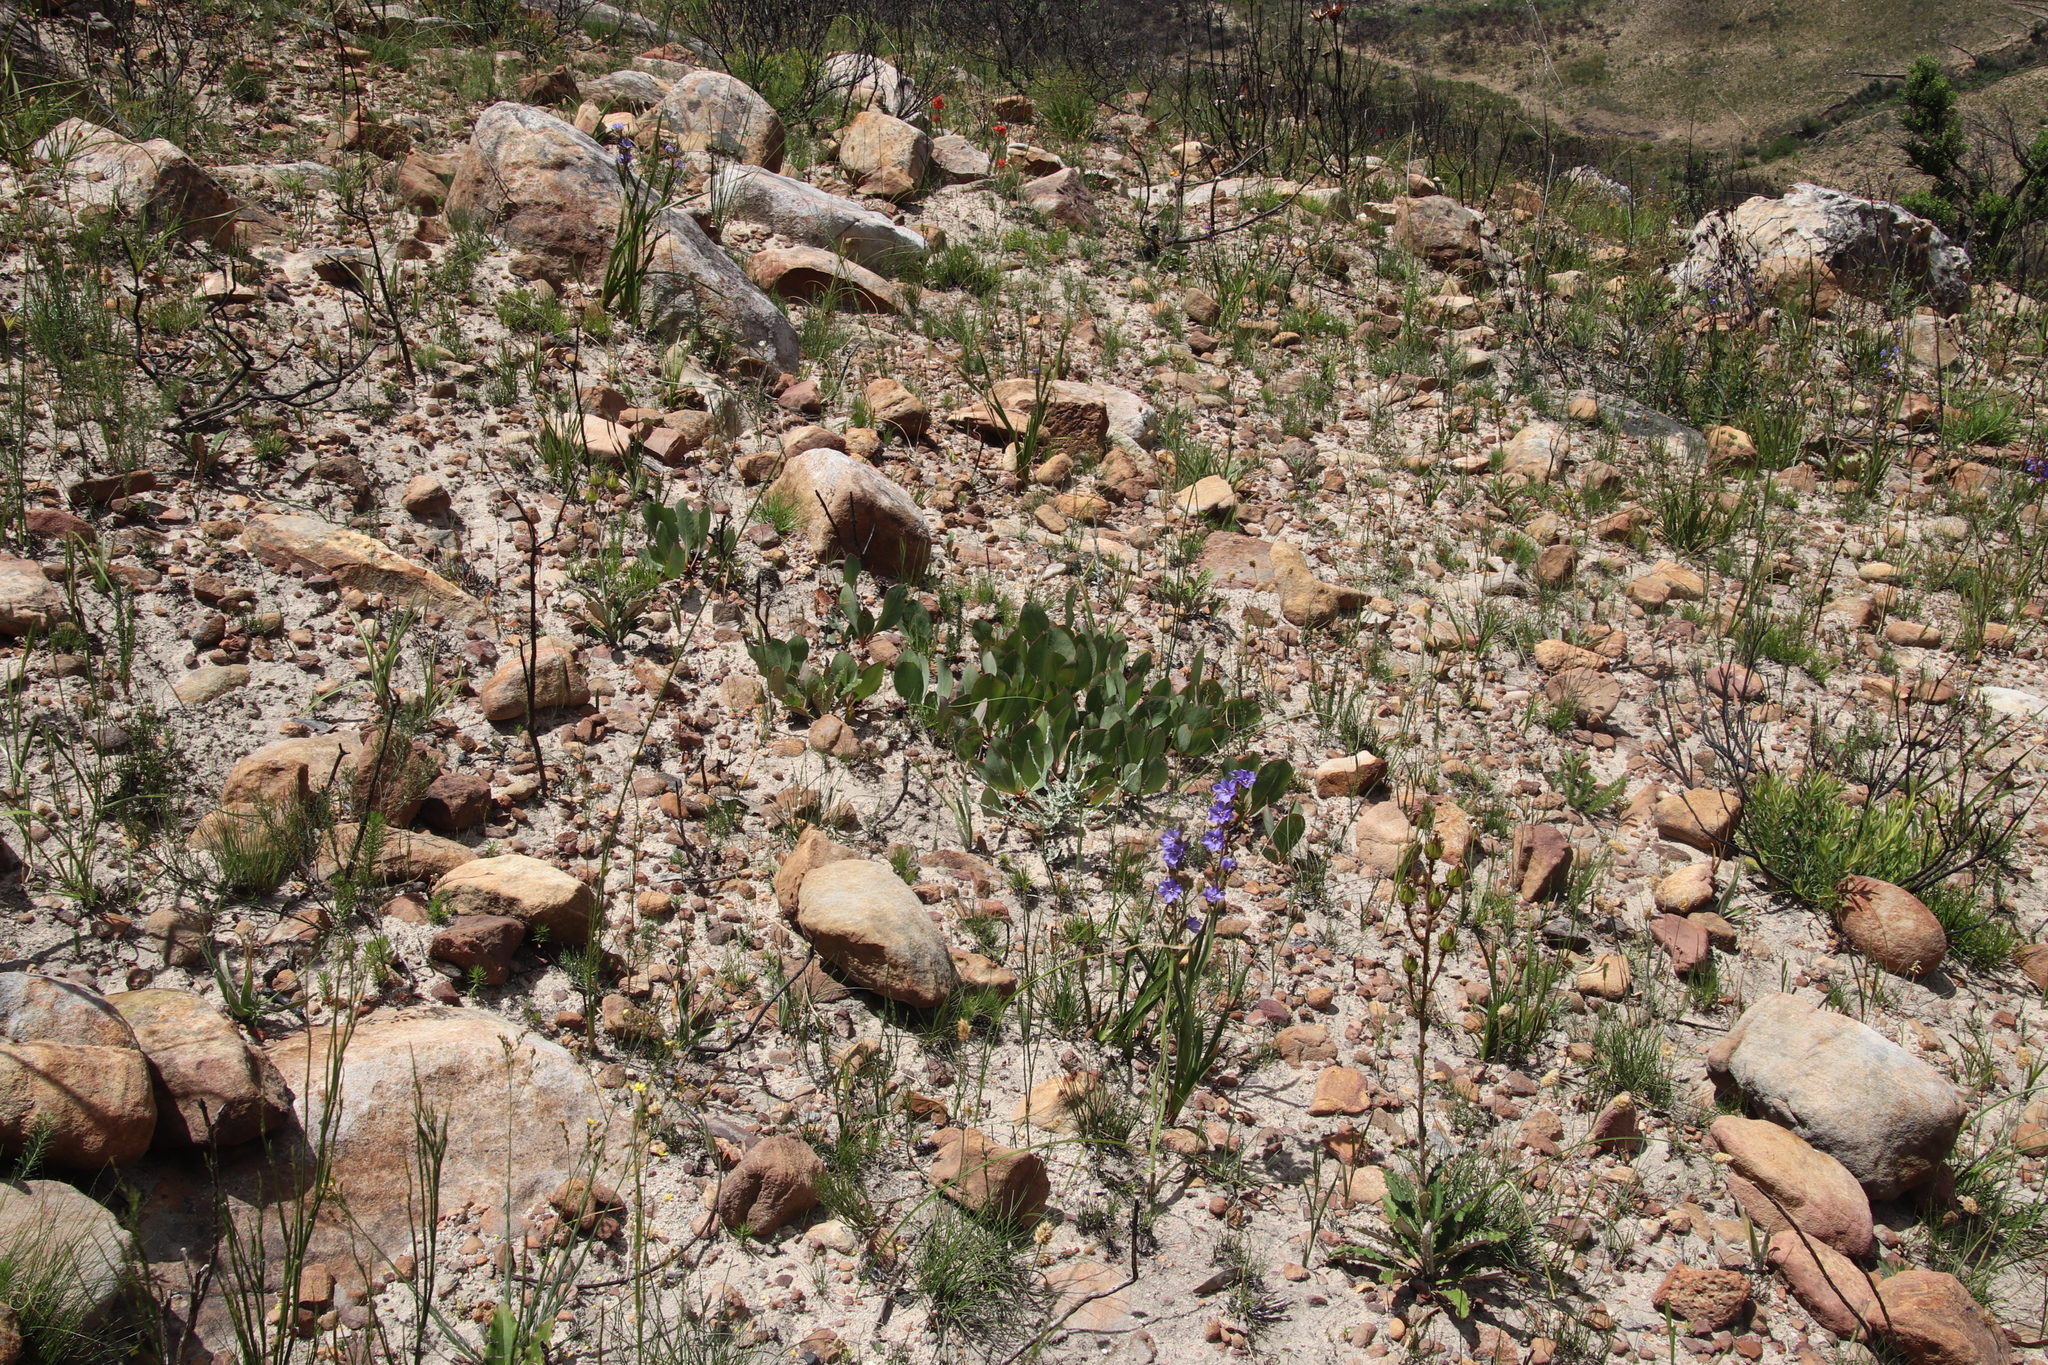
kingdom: Plantae
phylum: Tracheophyta
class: Magnoliopsida
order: Proteales
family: Proteaceae
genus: Protea
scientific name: Protea acaulos
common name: Common ground sugarbush
